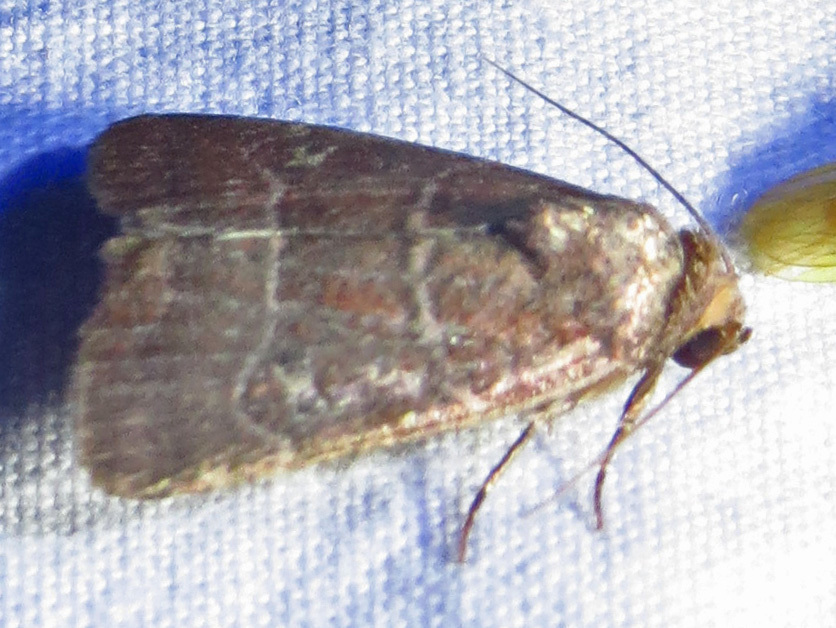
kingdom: Animalia
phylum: Arthropoda
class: Insecta
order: Lepidoptera
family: Noctuidae
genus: Elaphria
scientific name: Elaphria grata
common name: Grateful midget moth
